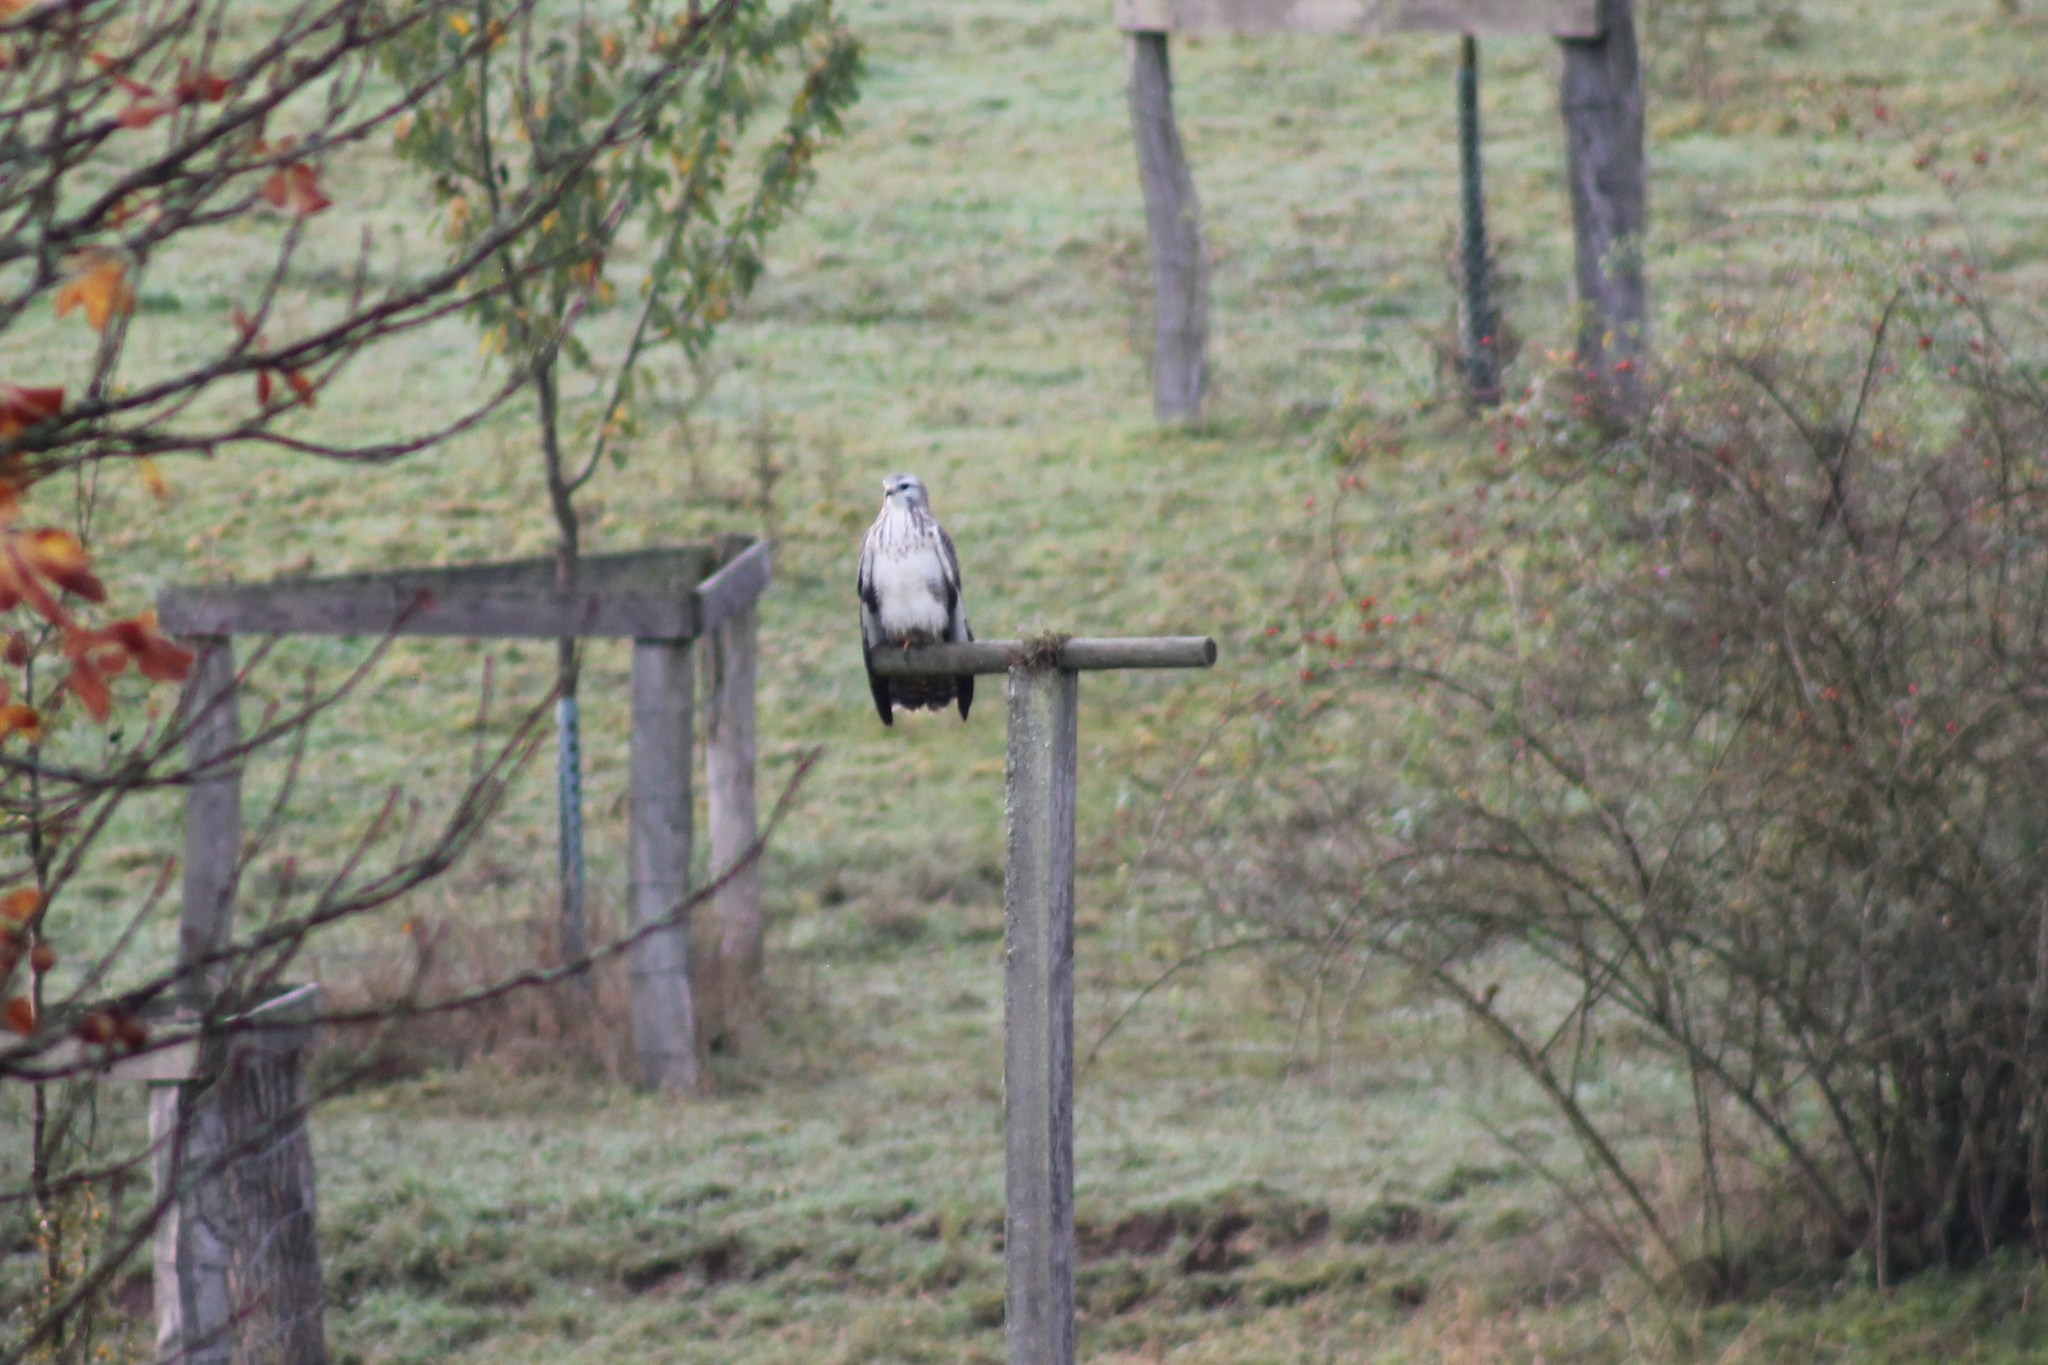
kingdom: Animalia
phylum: Chordata
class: Aves
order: Accipitriformes
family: Accipitridae
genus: Buteo
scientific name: Buteo buteo
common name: Common buzzard
